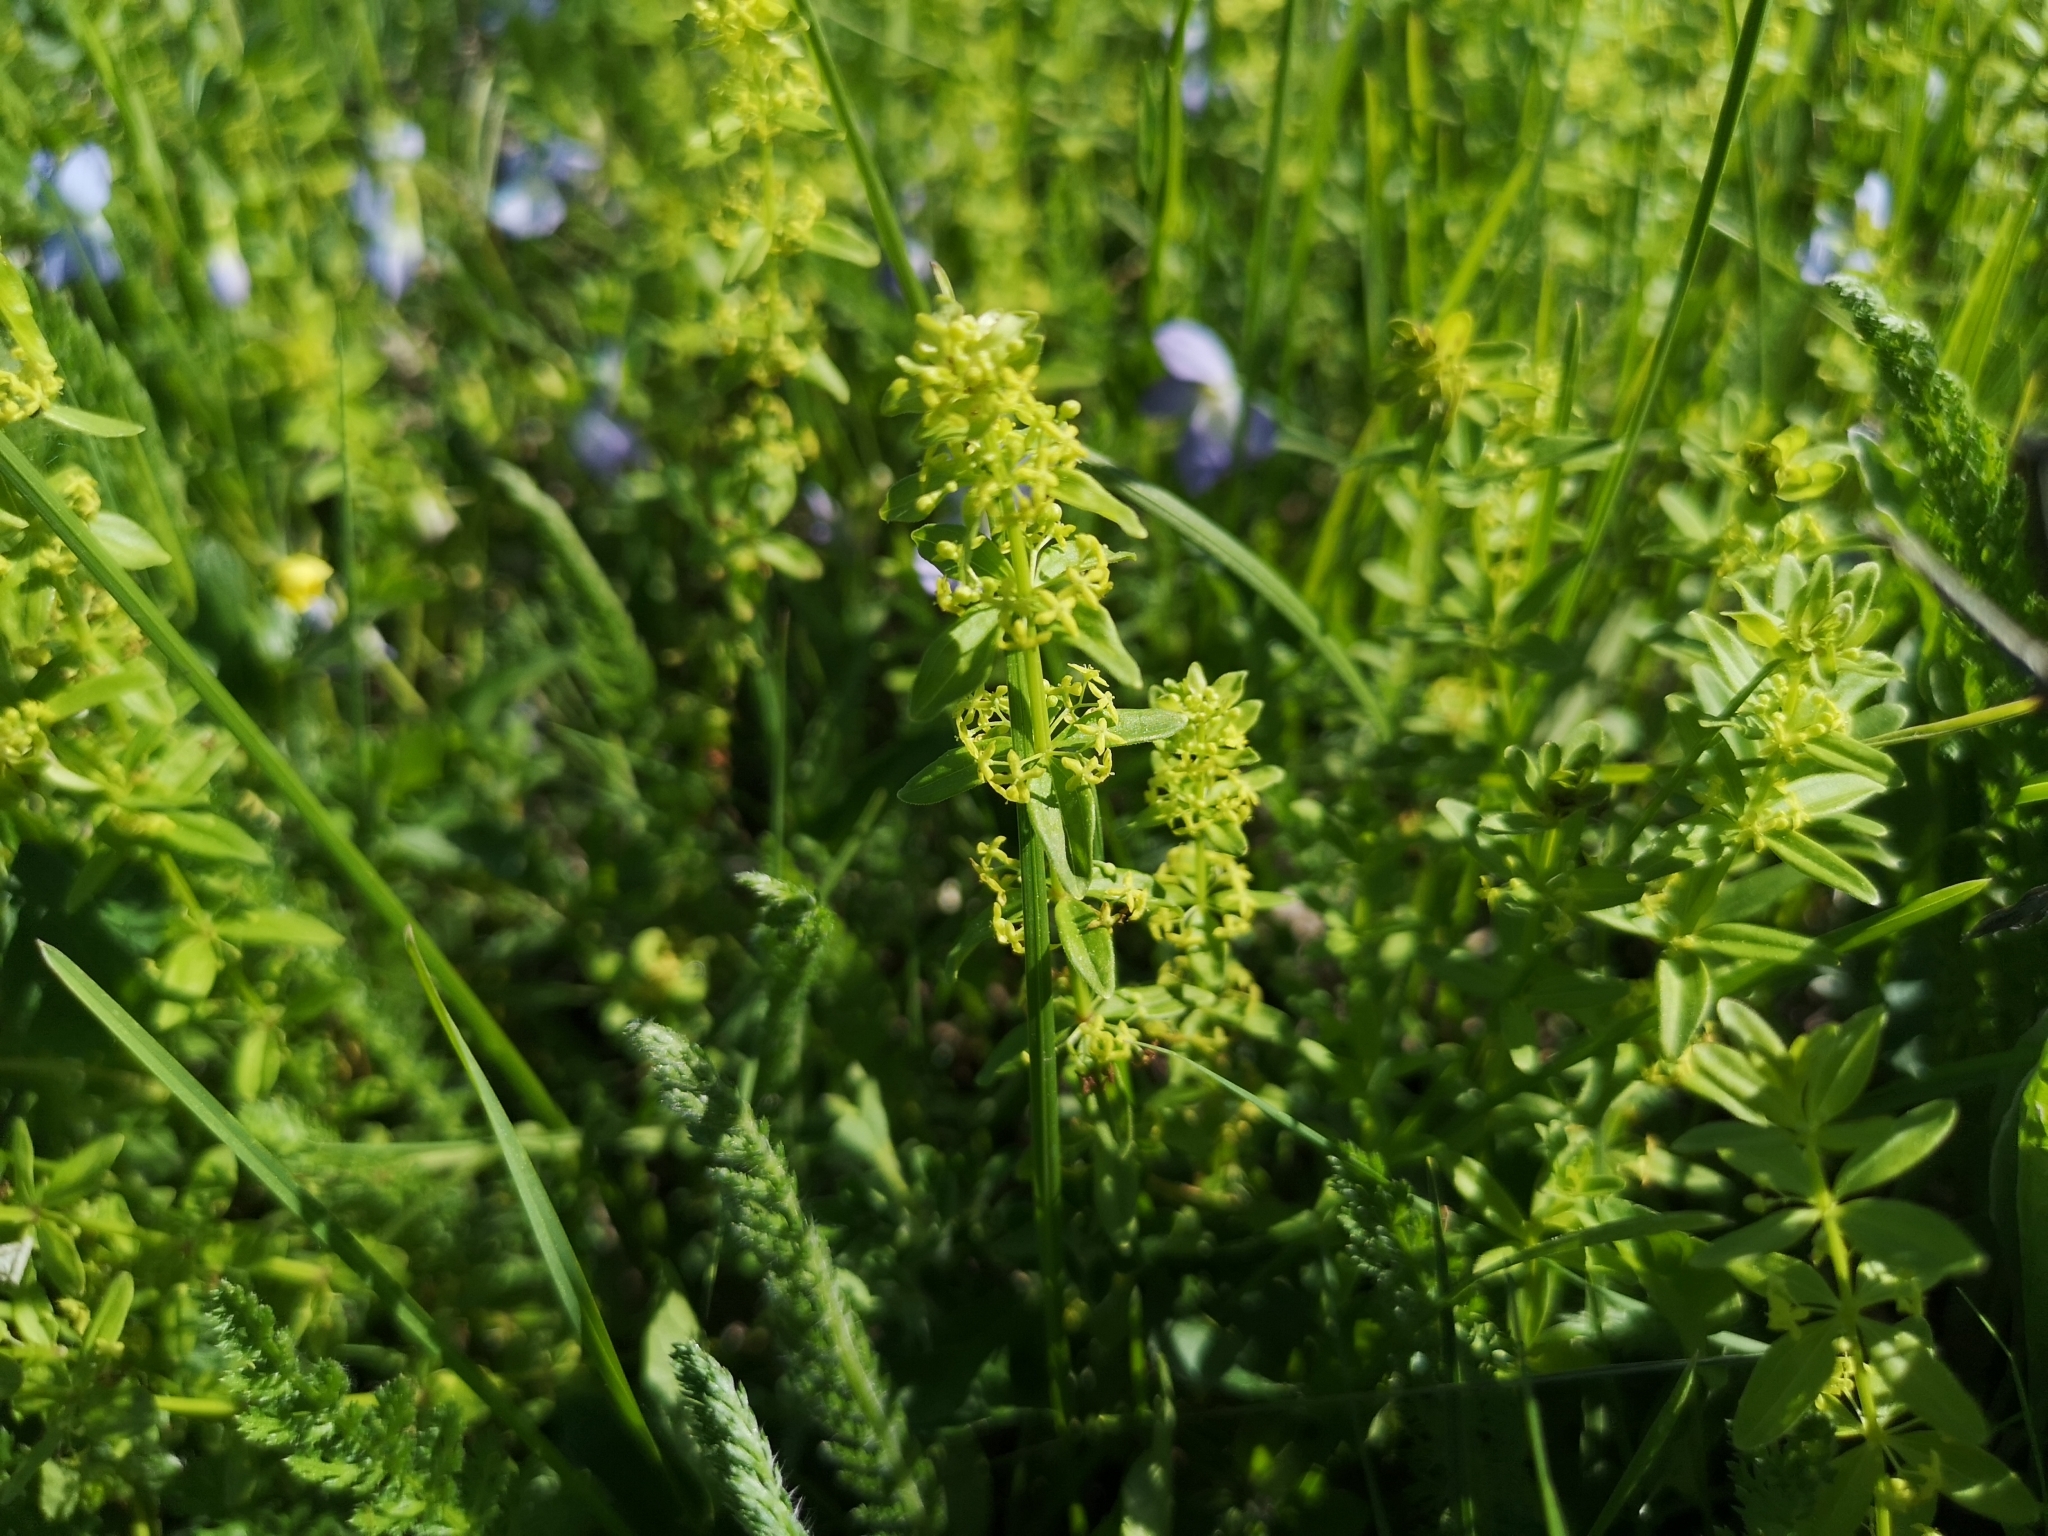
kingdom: Plantae
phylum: Tracheophyta
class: Magnoliopsida
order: Gentianales
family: Rubiaceae
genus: Cruciata
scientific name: Cruciata glabra
